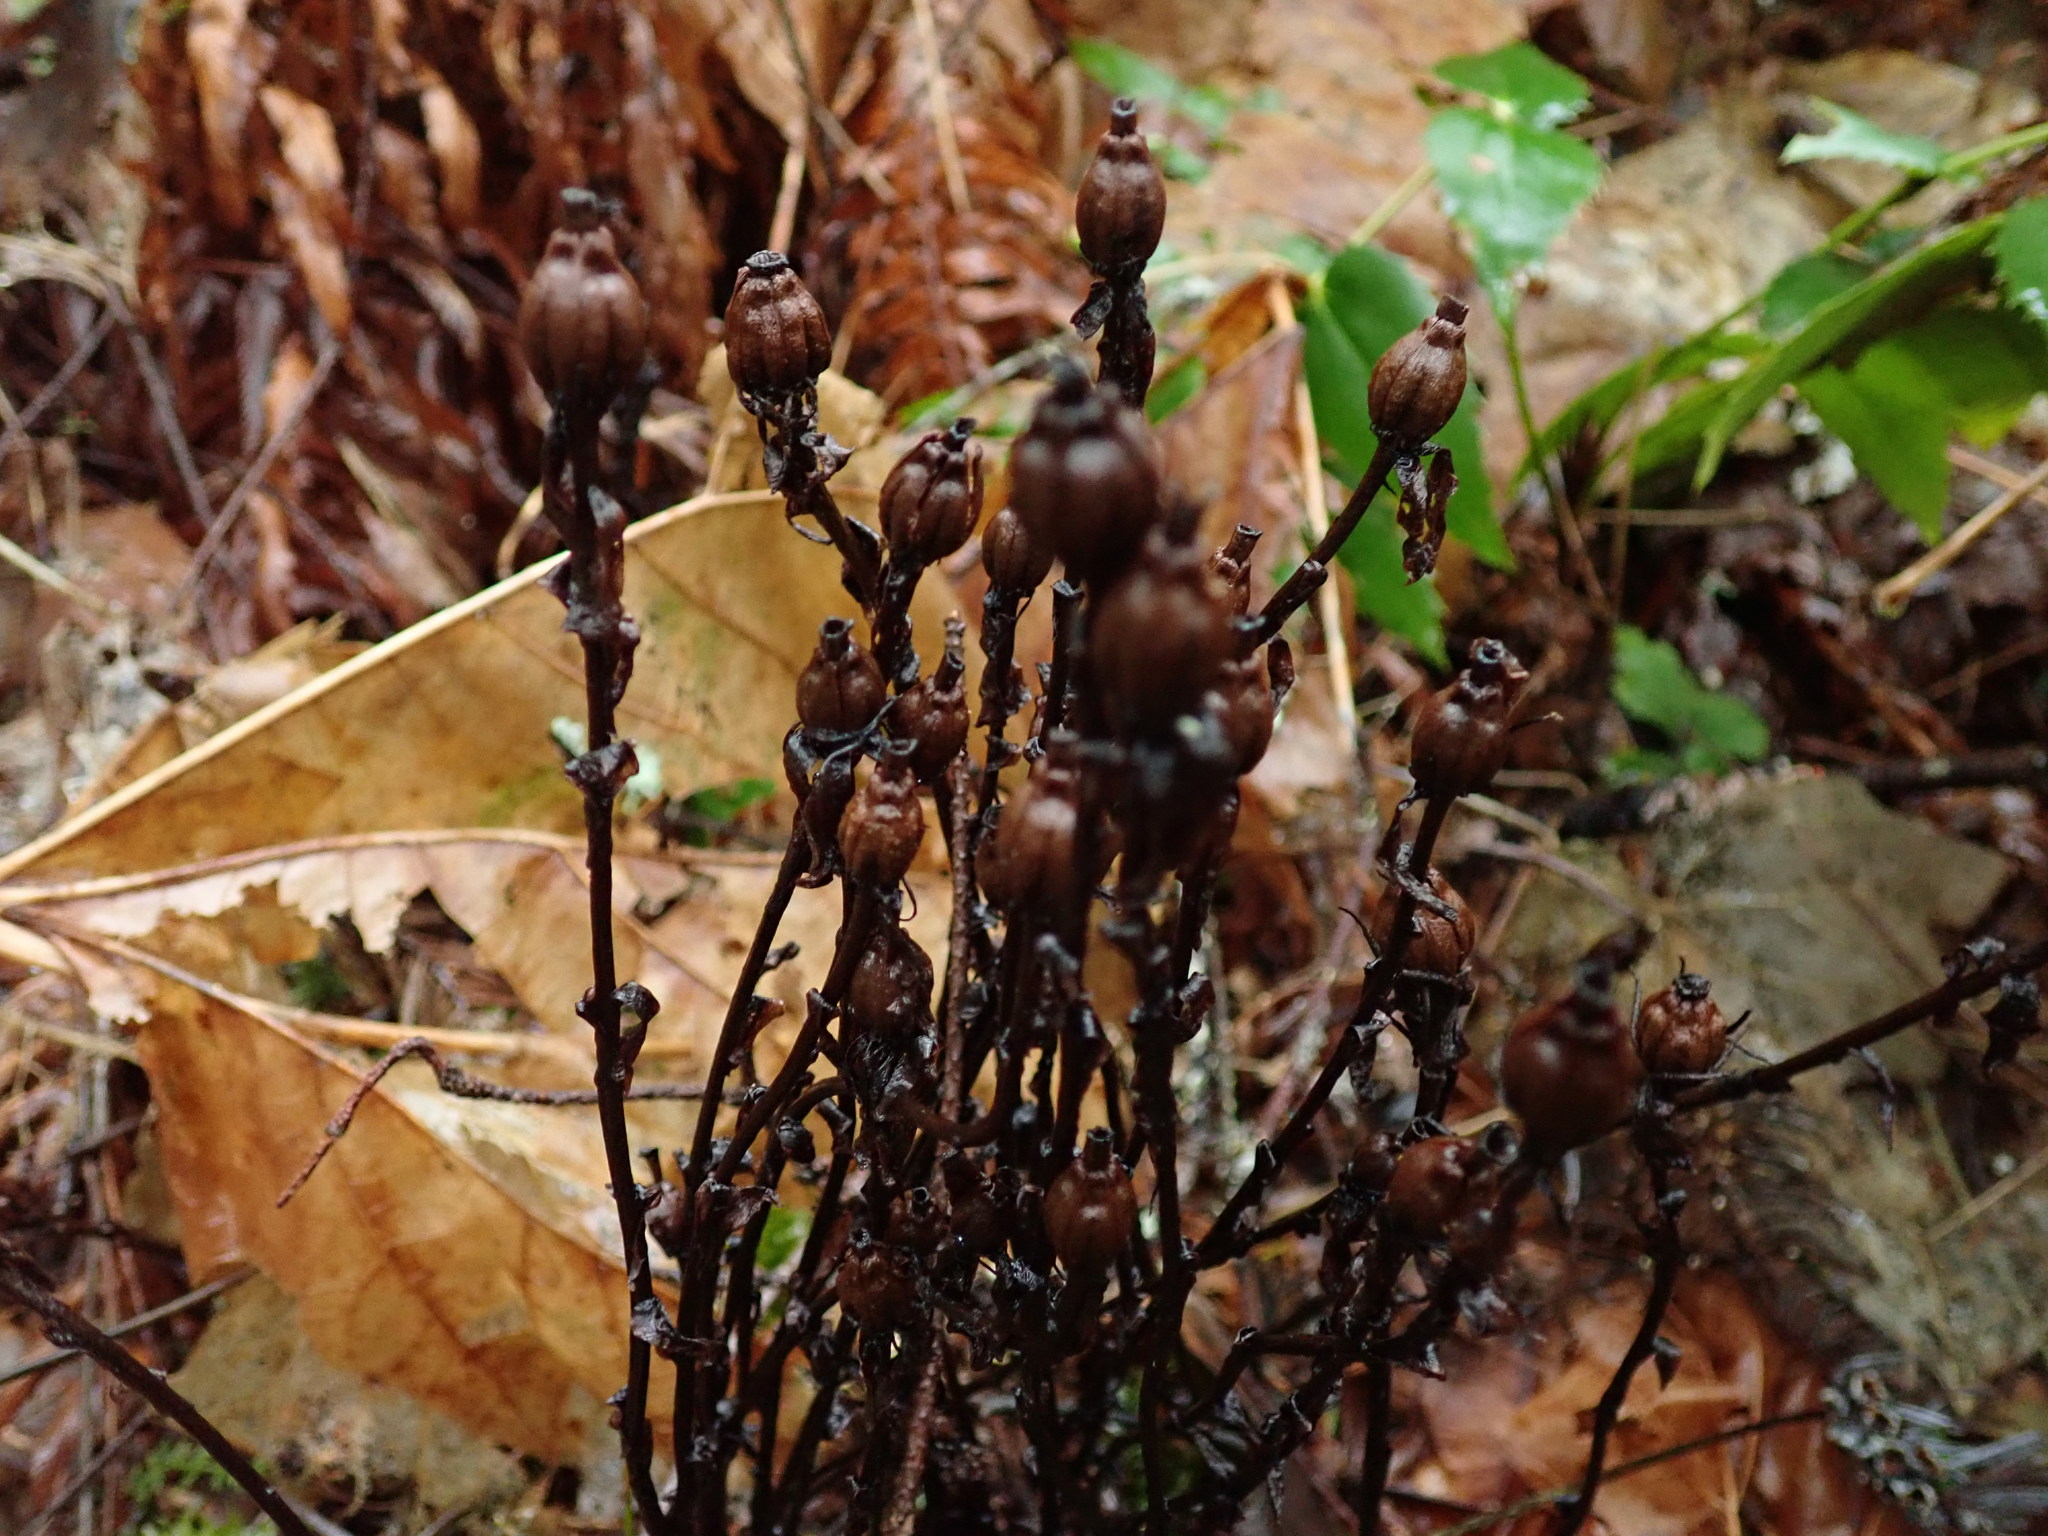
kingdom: Plantae
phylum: Tracheophyta
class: Magnoliopsida
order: Ericales
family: Ericaceae
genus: Monotropa
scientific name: Monotropa uniflora
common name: Convulsion root
